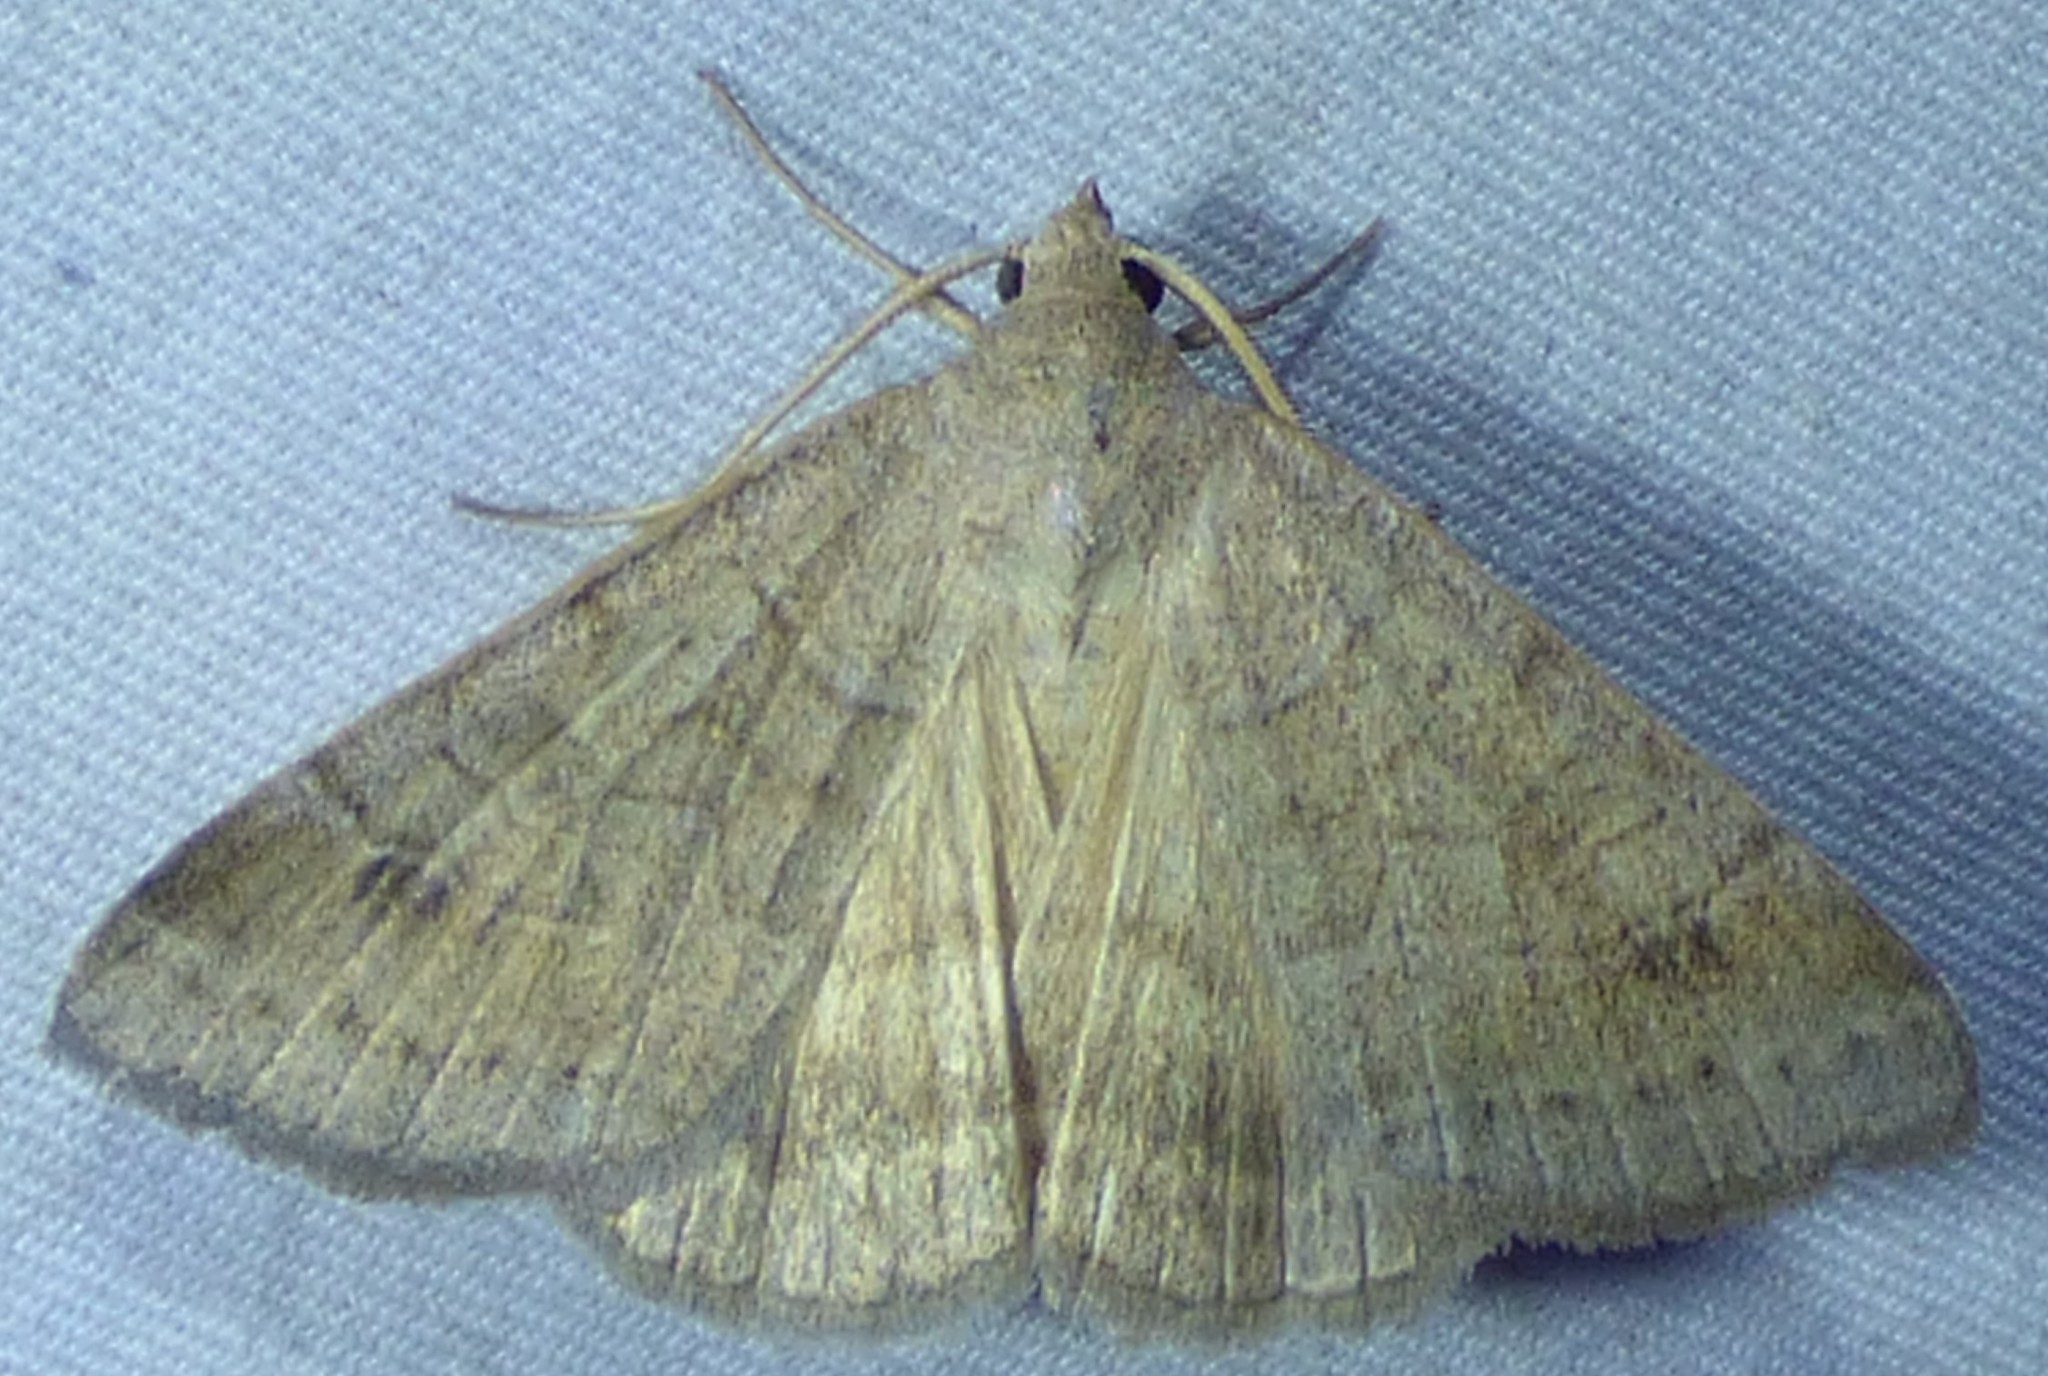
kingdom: Animalia
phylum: Arthropoda
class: Insecta
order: Lepidoptera
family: Erebidae
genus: Caenurgia
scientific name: Caenurgia chloropha
